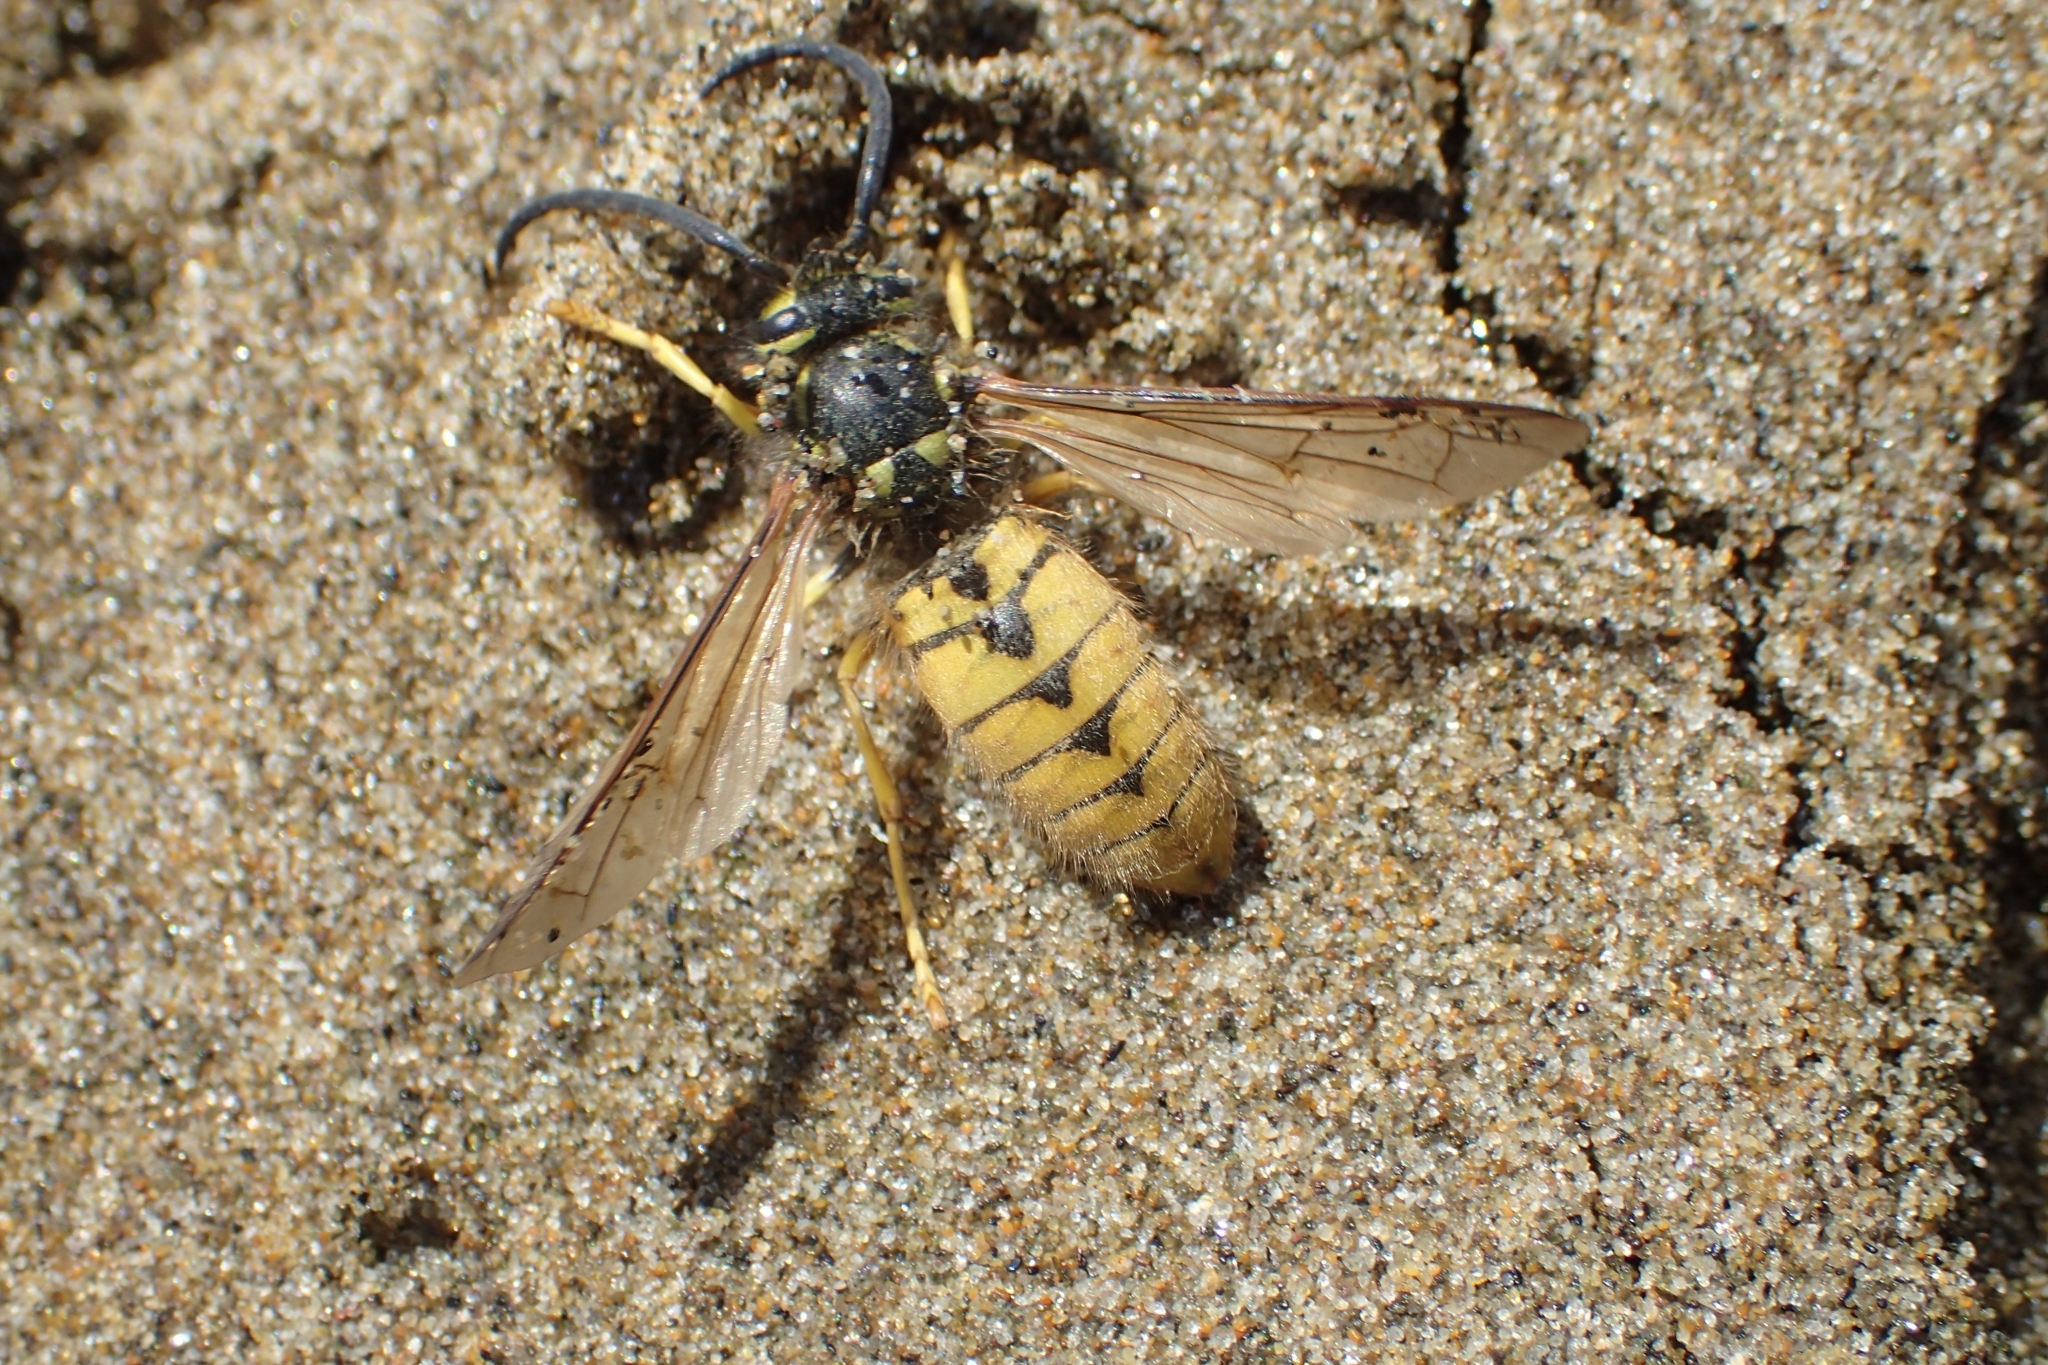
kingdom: Animalia
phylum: Arthropoda
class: Insecta
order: Hymenoptera
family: Vespidae
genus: Vespula
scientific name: Vespula germanica
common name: German wasp
